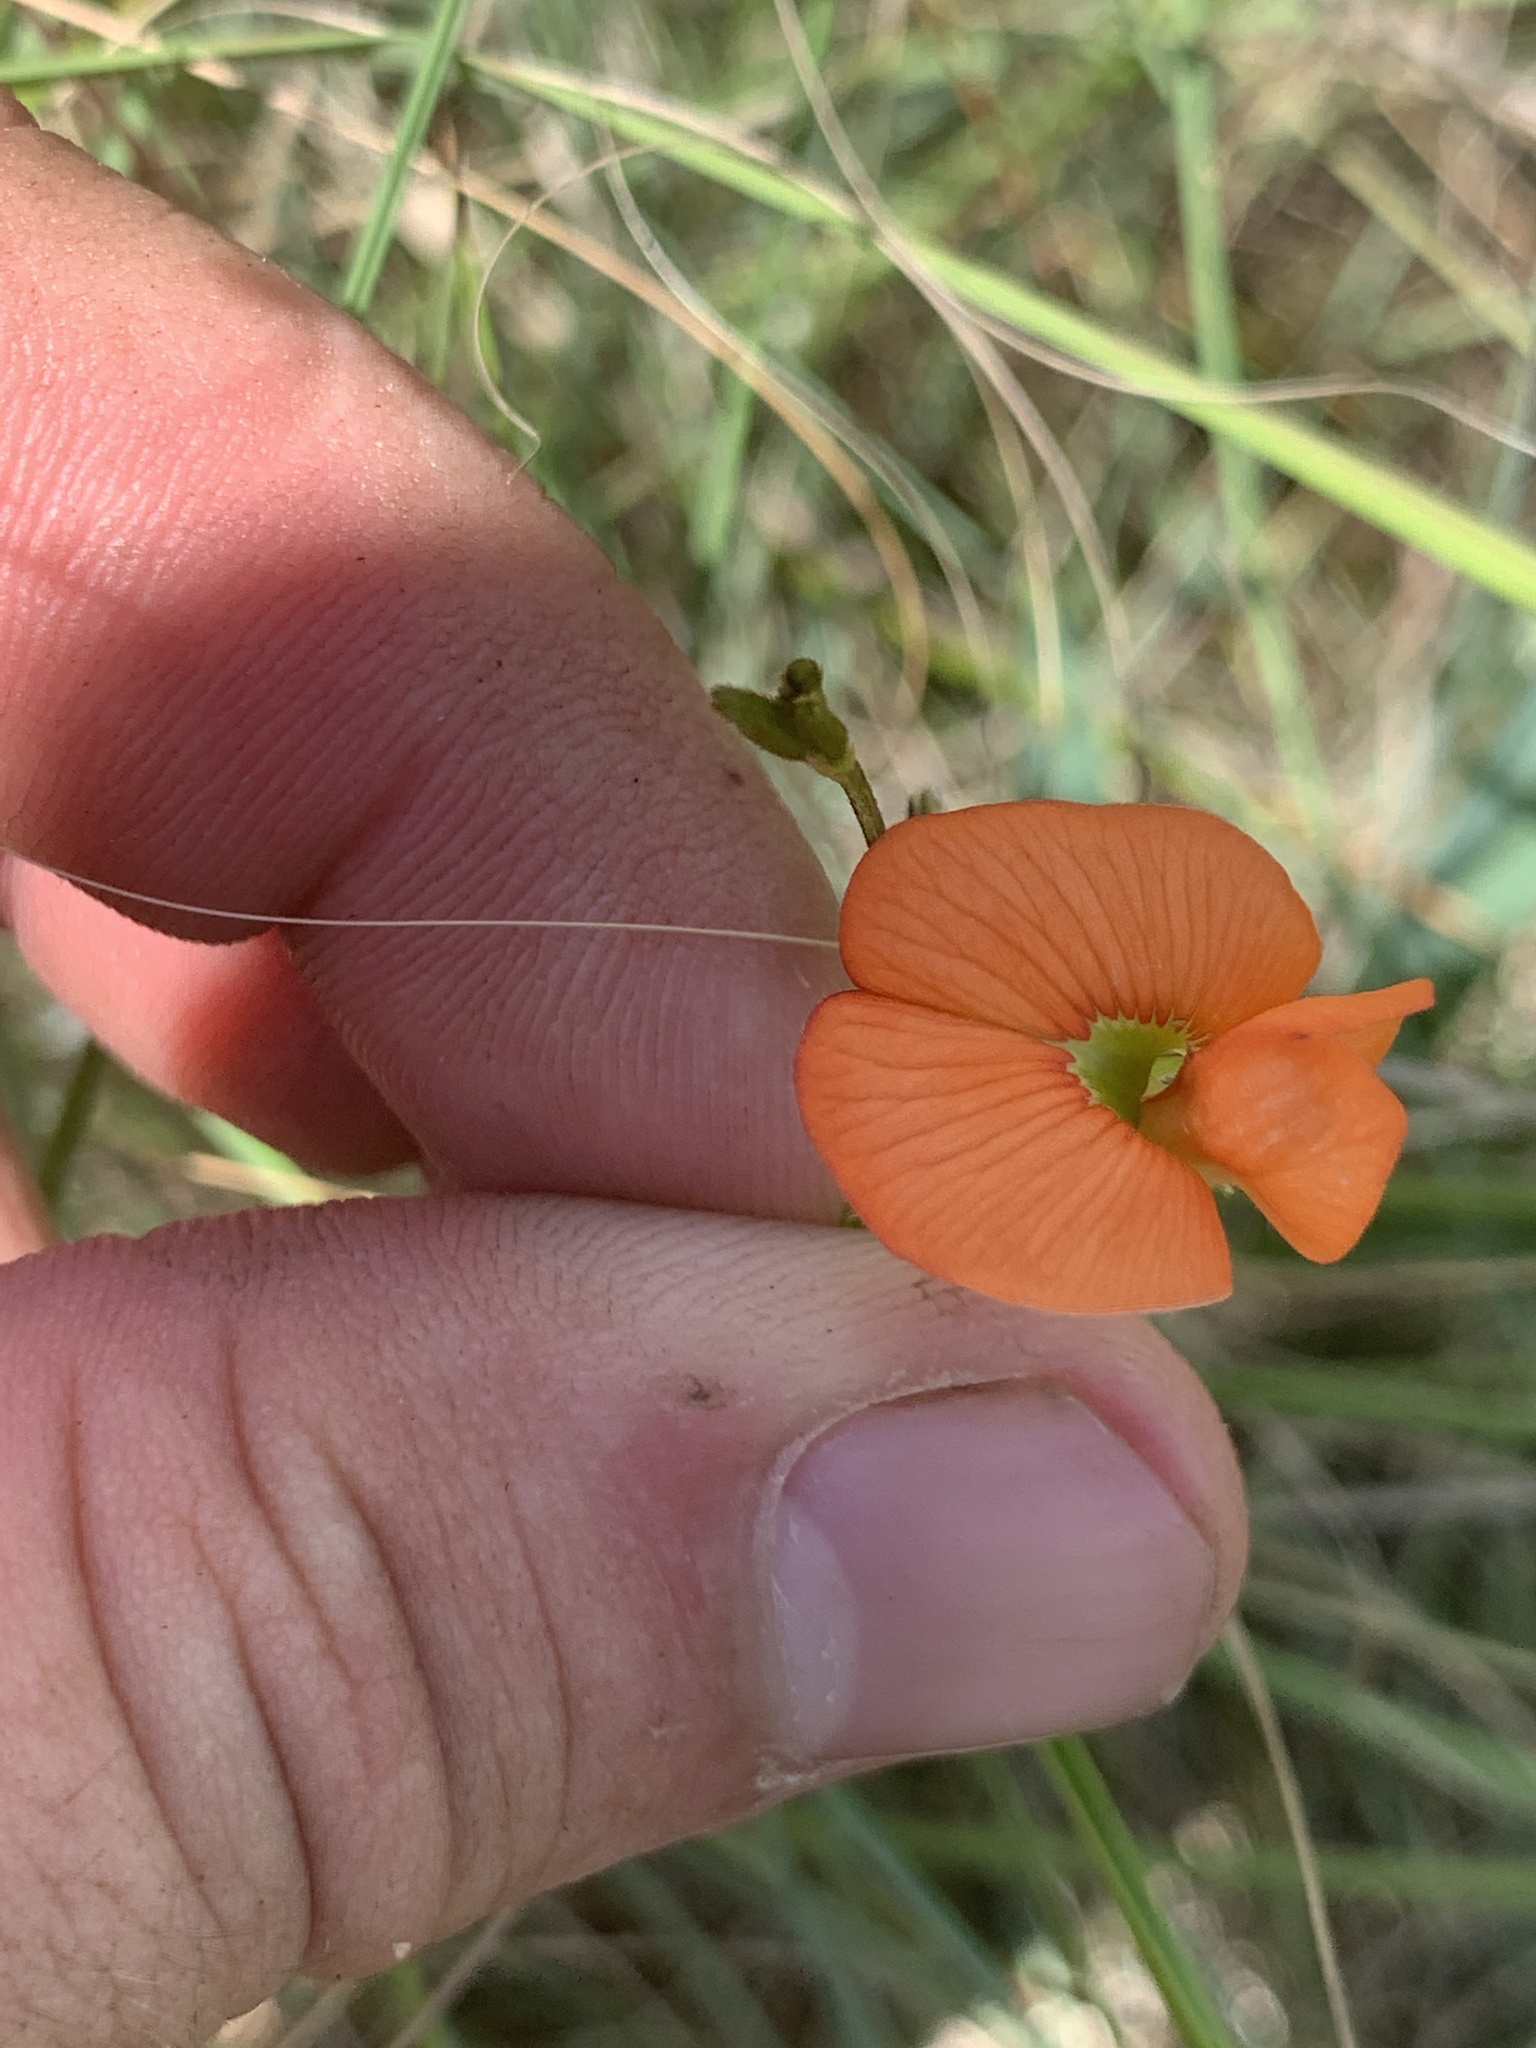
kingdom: Plantae
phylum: Tracheophyta
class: Magnoliopsida
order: Fabales
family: Fabaceae
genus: Tephrosia
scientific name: Tephrosia elongata
